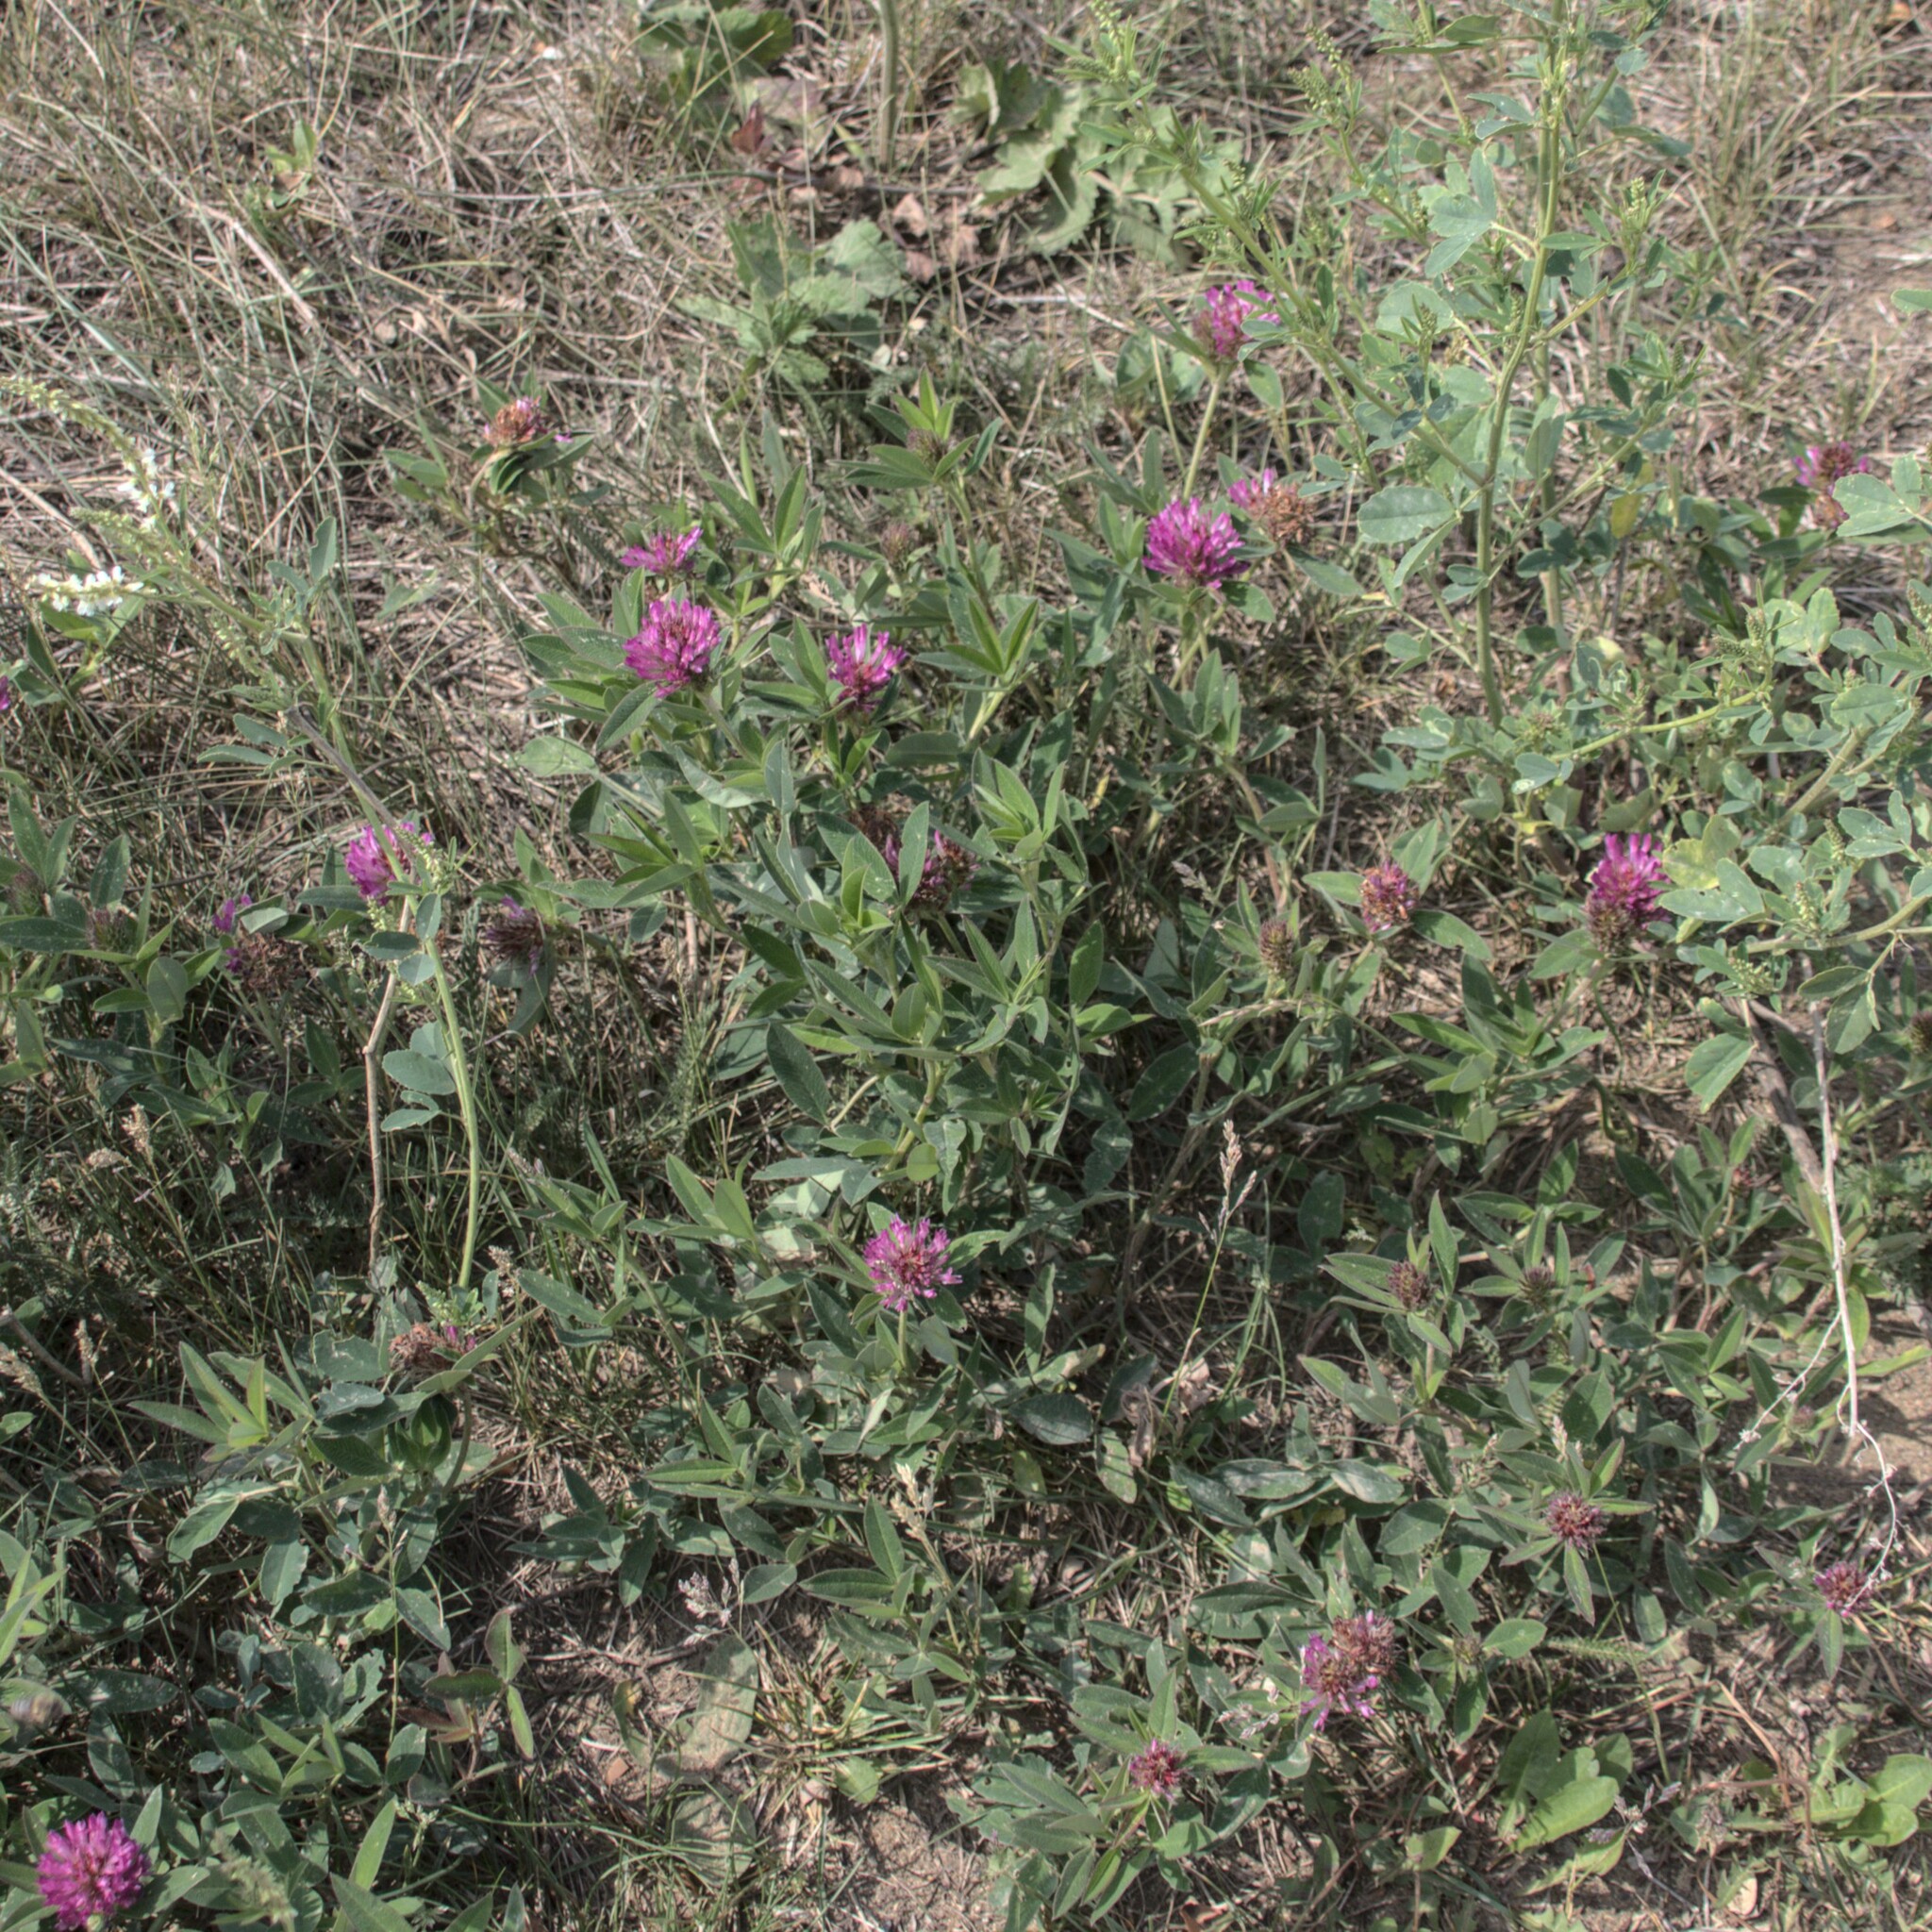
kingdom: Plantae
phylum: Tracheophyta
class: Magnoliopsida
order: Fabales
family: Fabaceae
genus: Trifolium
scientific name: Trifolium medium
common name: Zigzag clover
